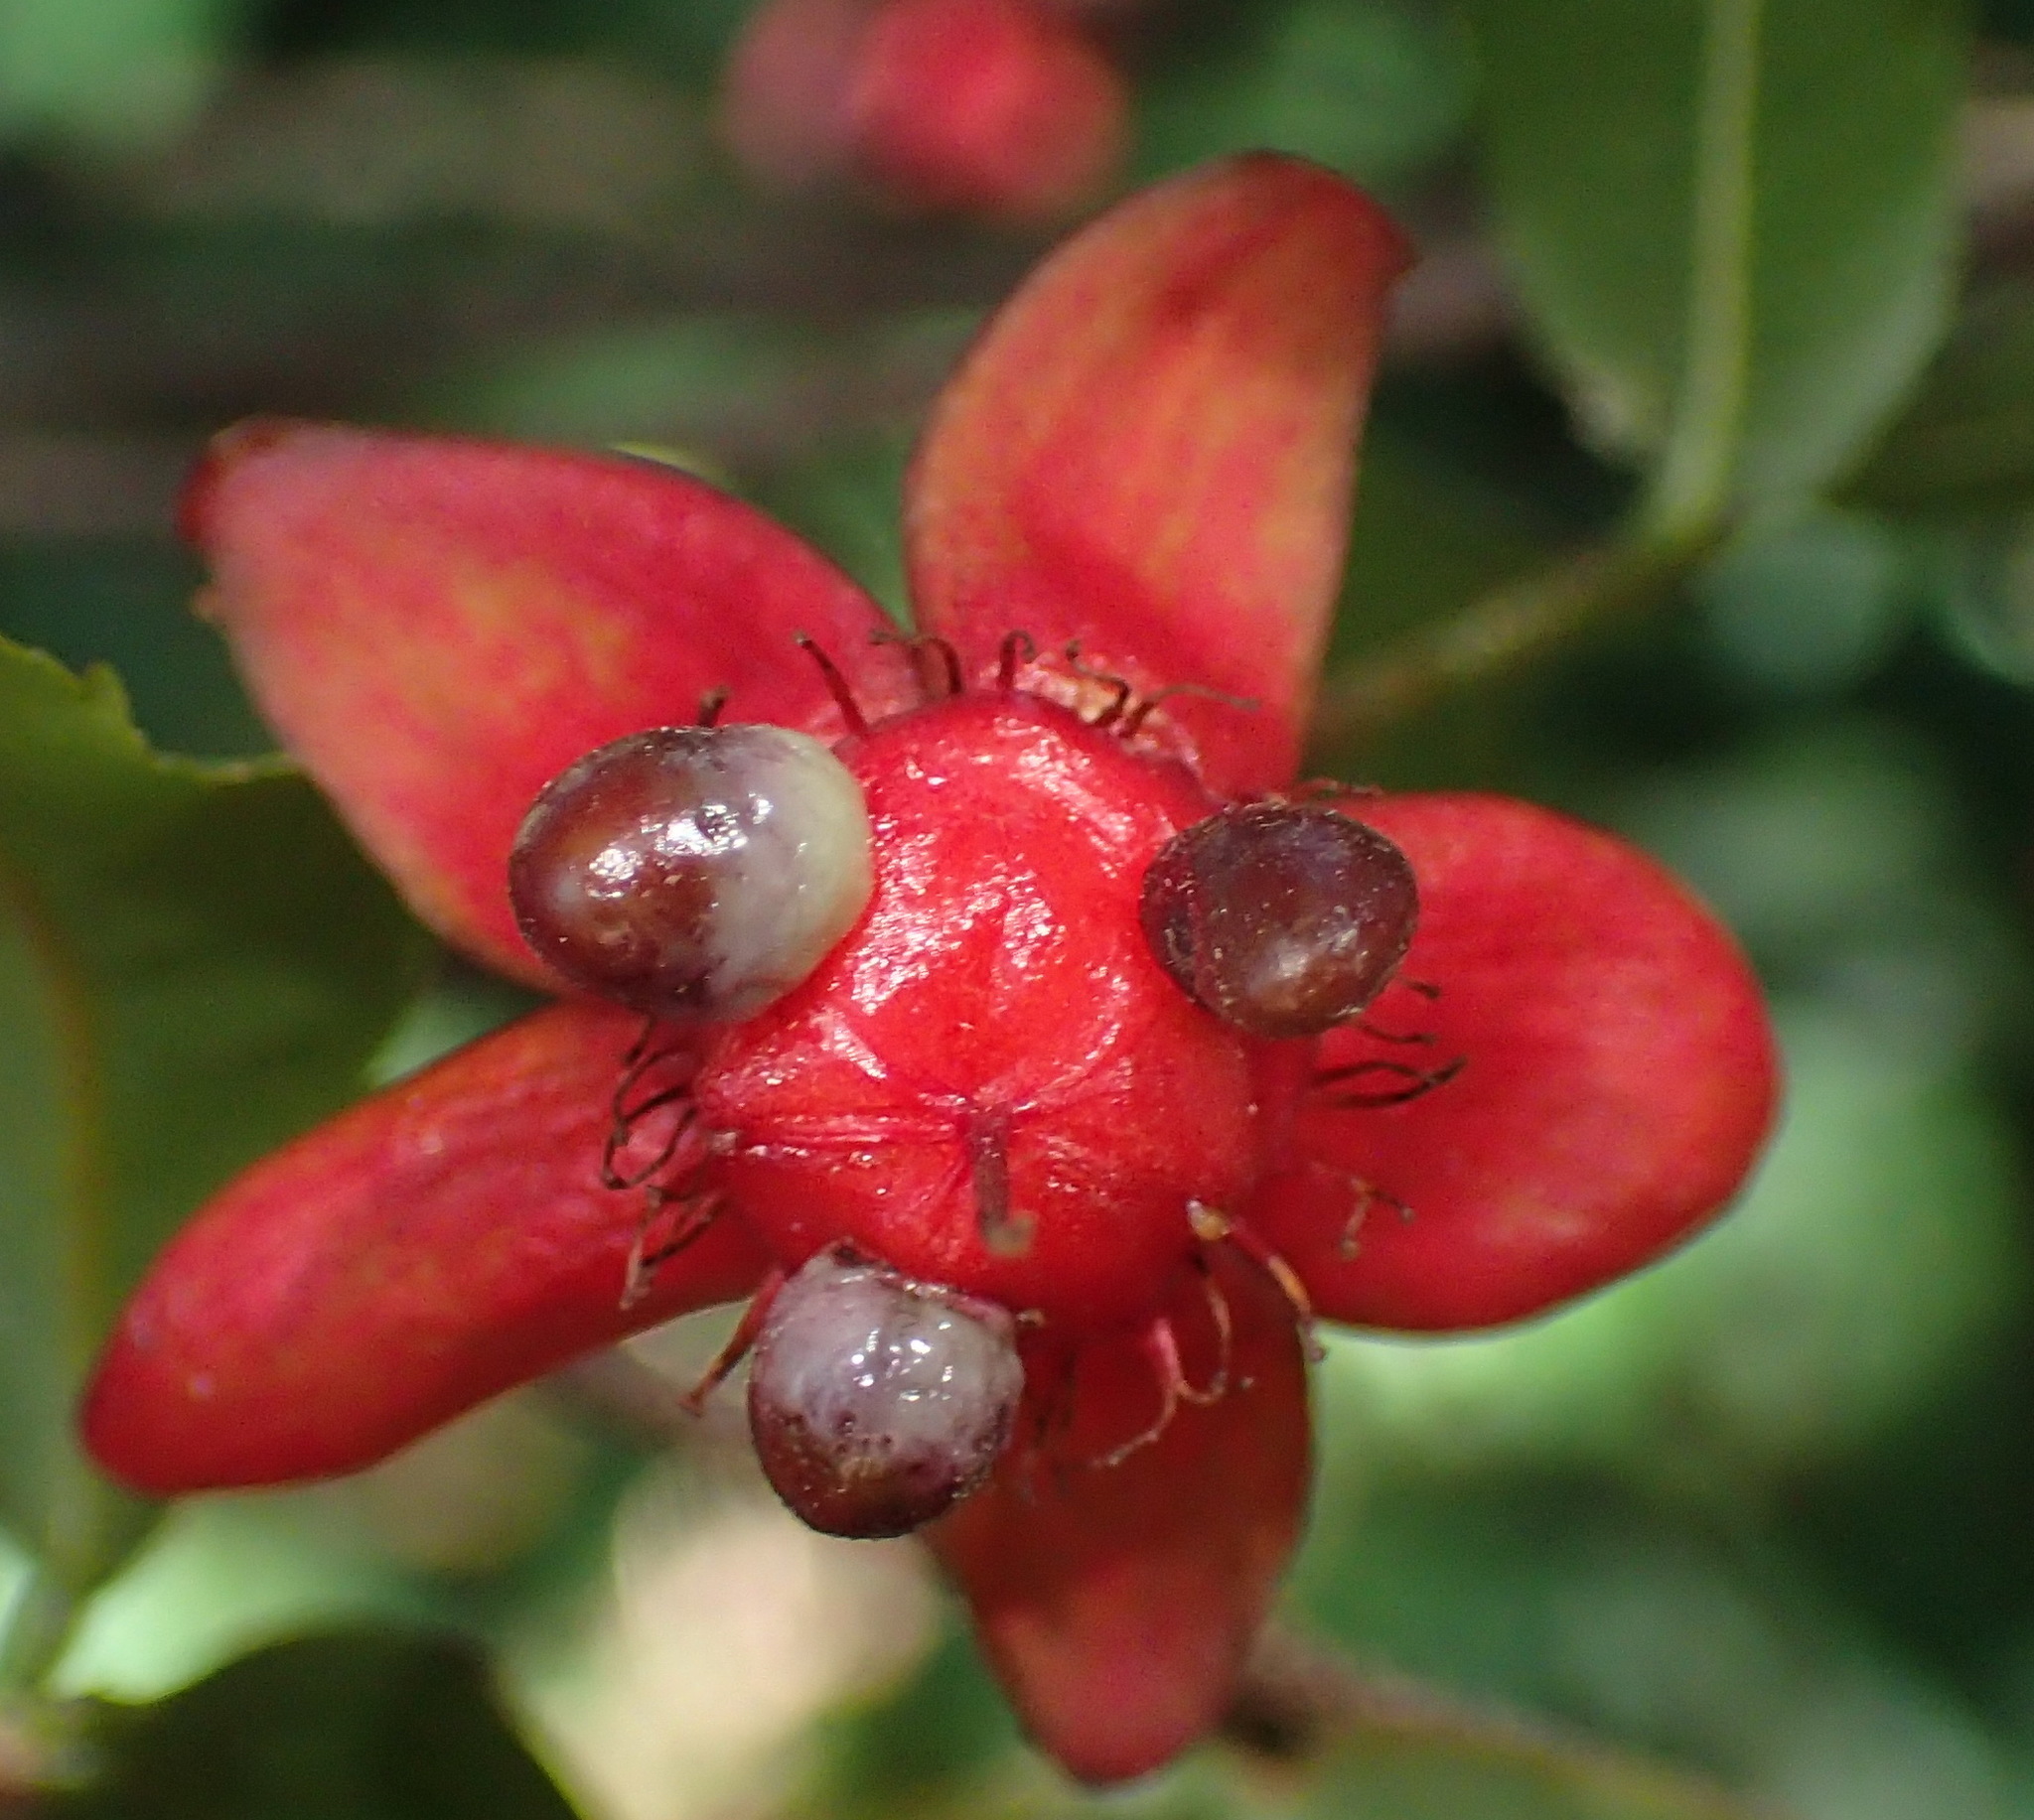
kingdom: Plantae
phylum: Tracheophyta
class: Magnoliopsida
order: Malpighiales
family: Ochnaceae
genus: Ochna
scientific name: Ochna serrulata
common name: Mickey mouse plant
